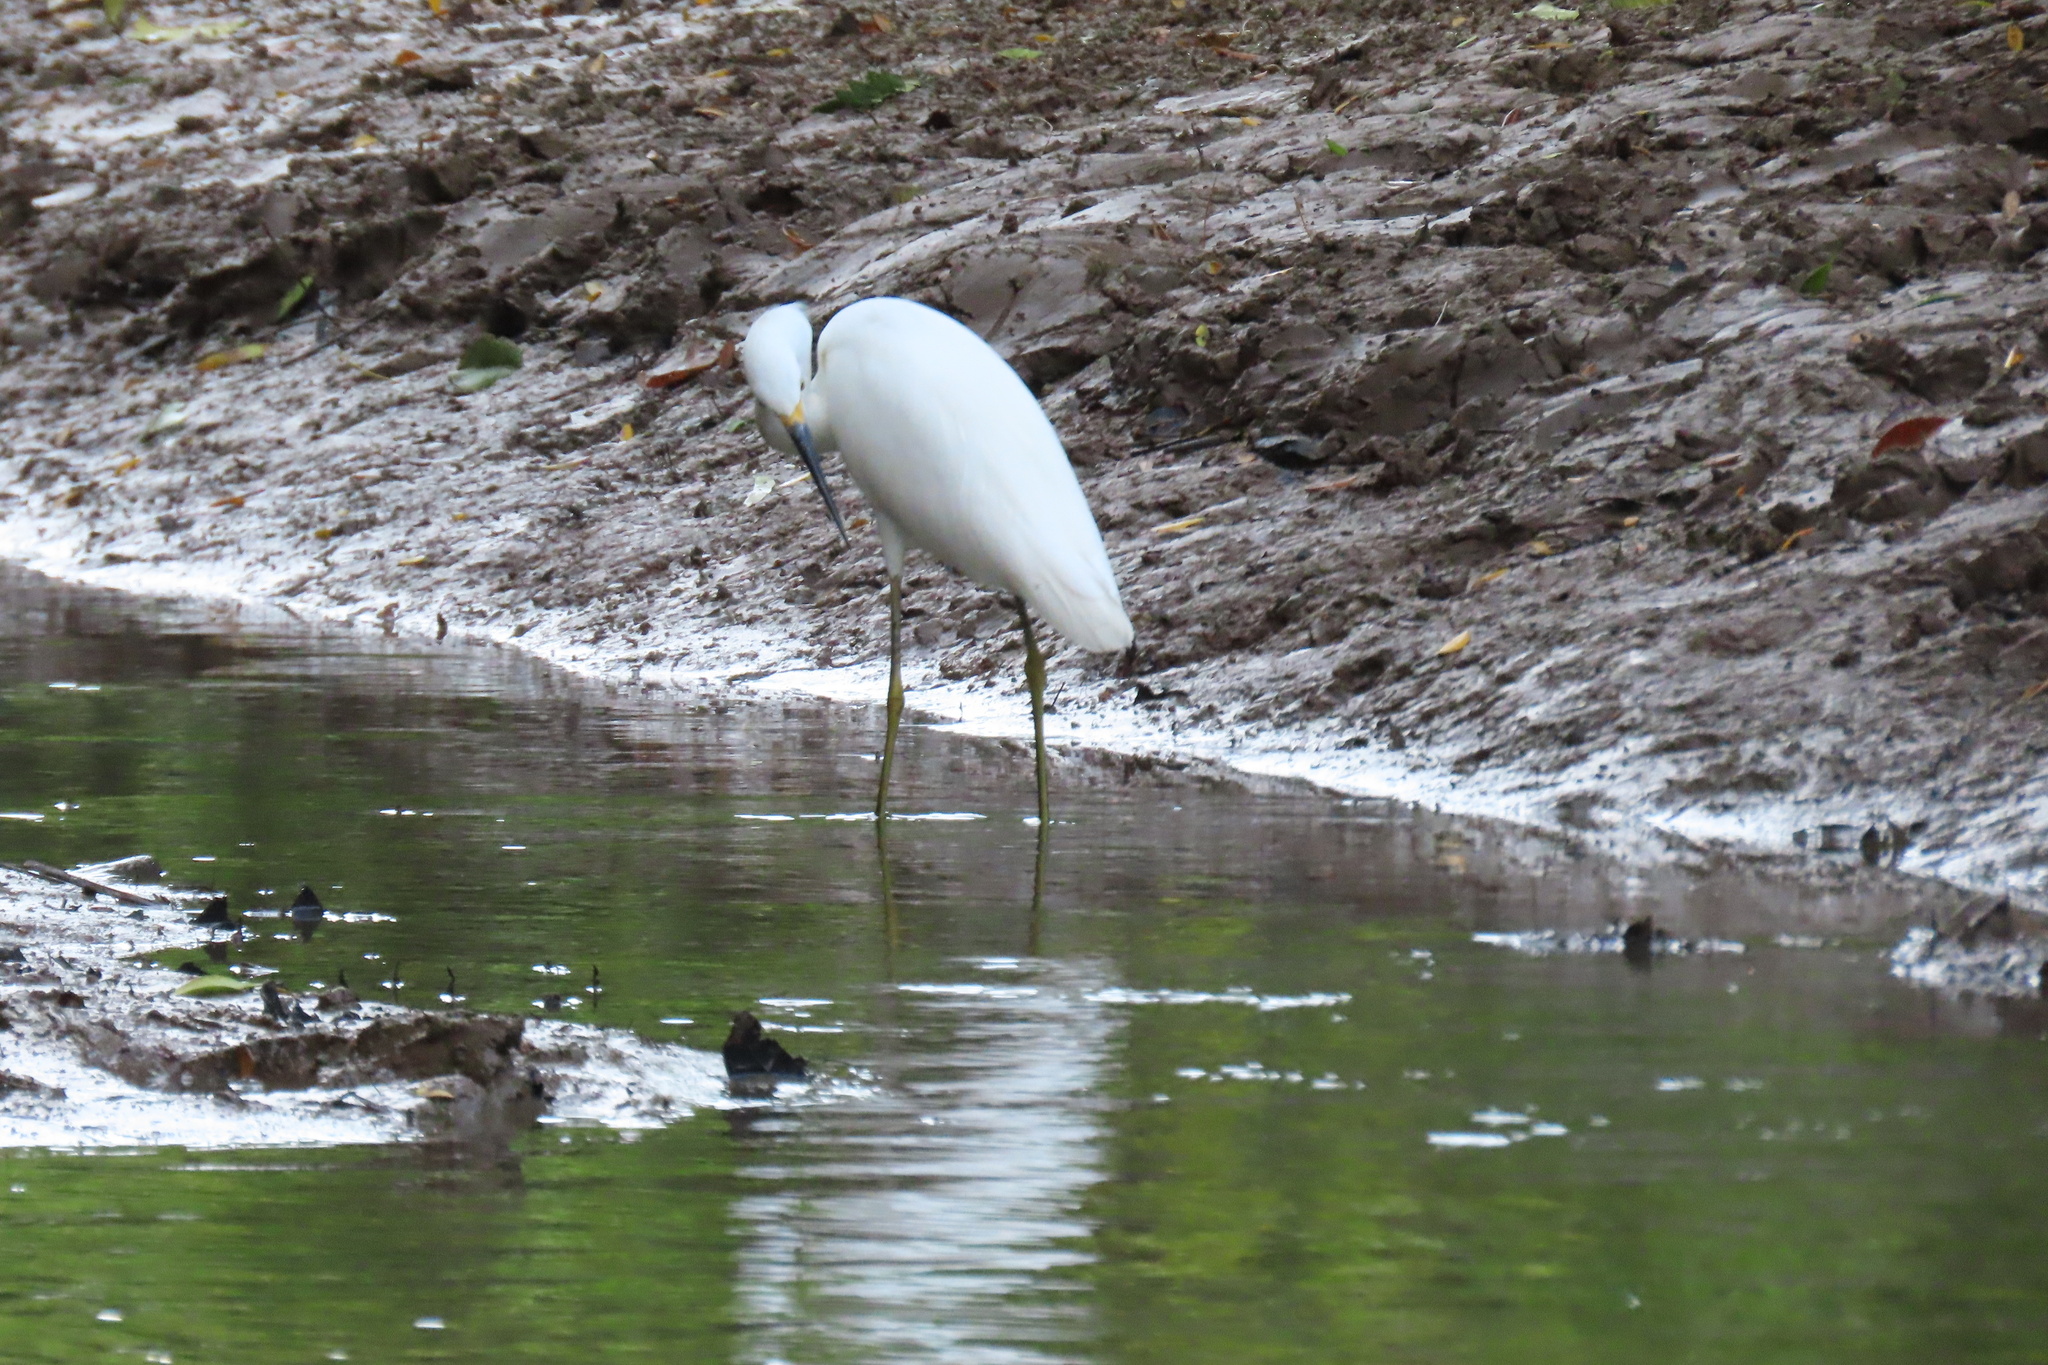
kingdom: Animalia
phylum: Chordata
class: Aves
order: Pelecaniformes
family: Ardeidae
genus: Egretta
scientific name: Egretta thula
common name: Snowy egret
